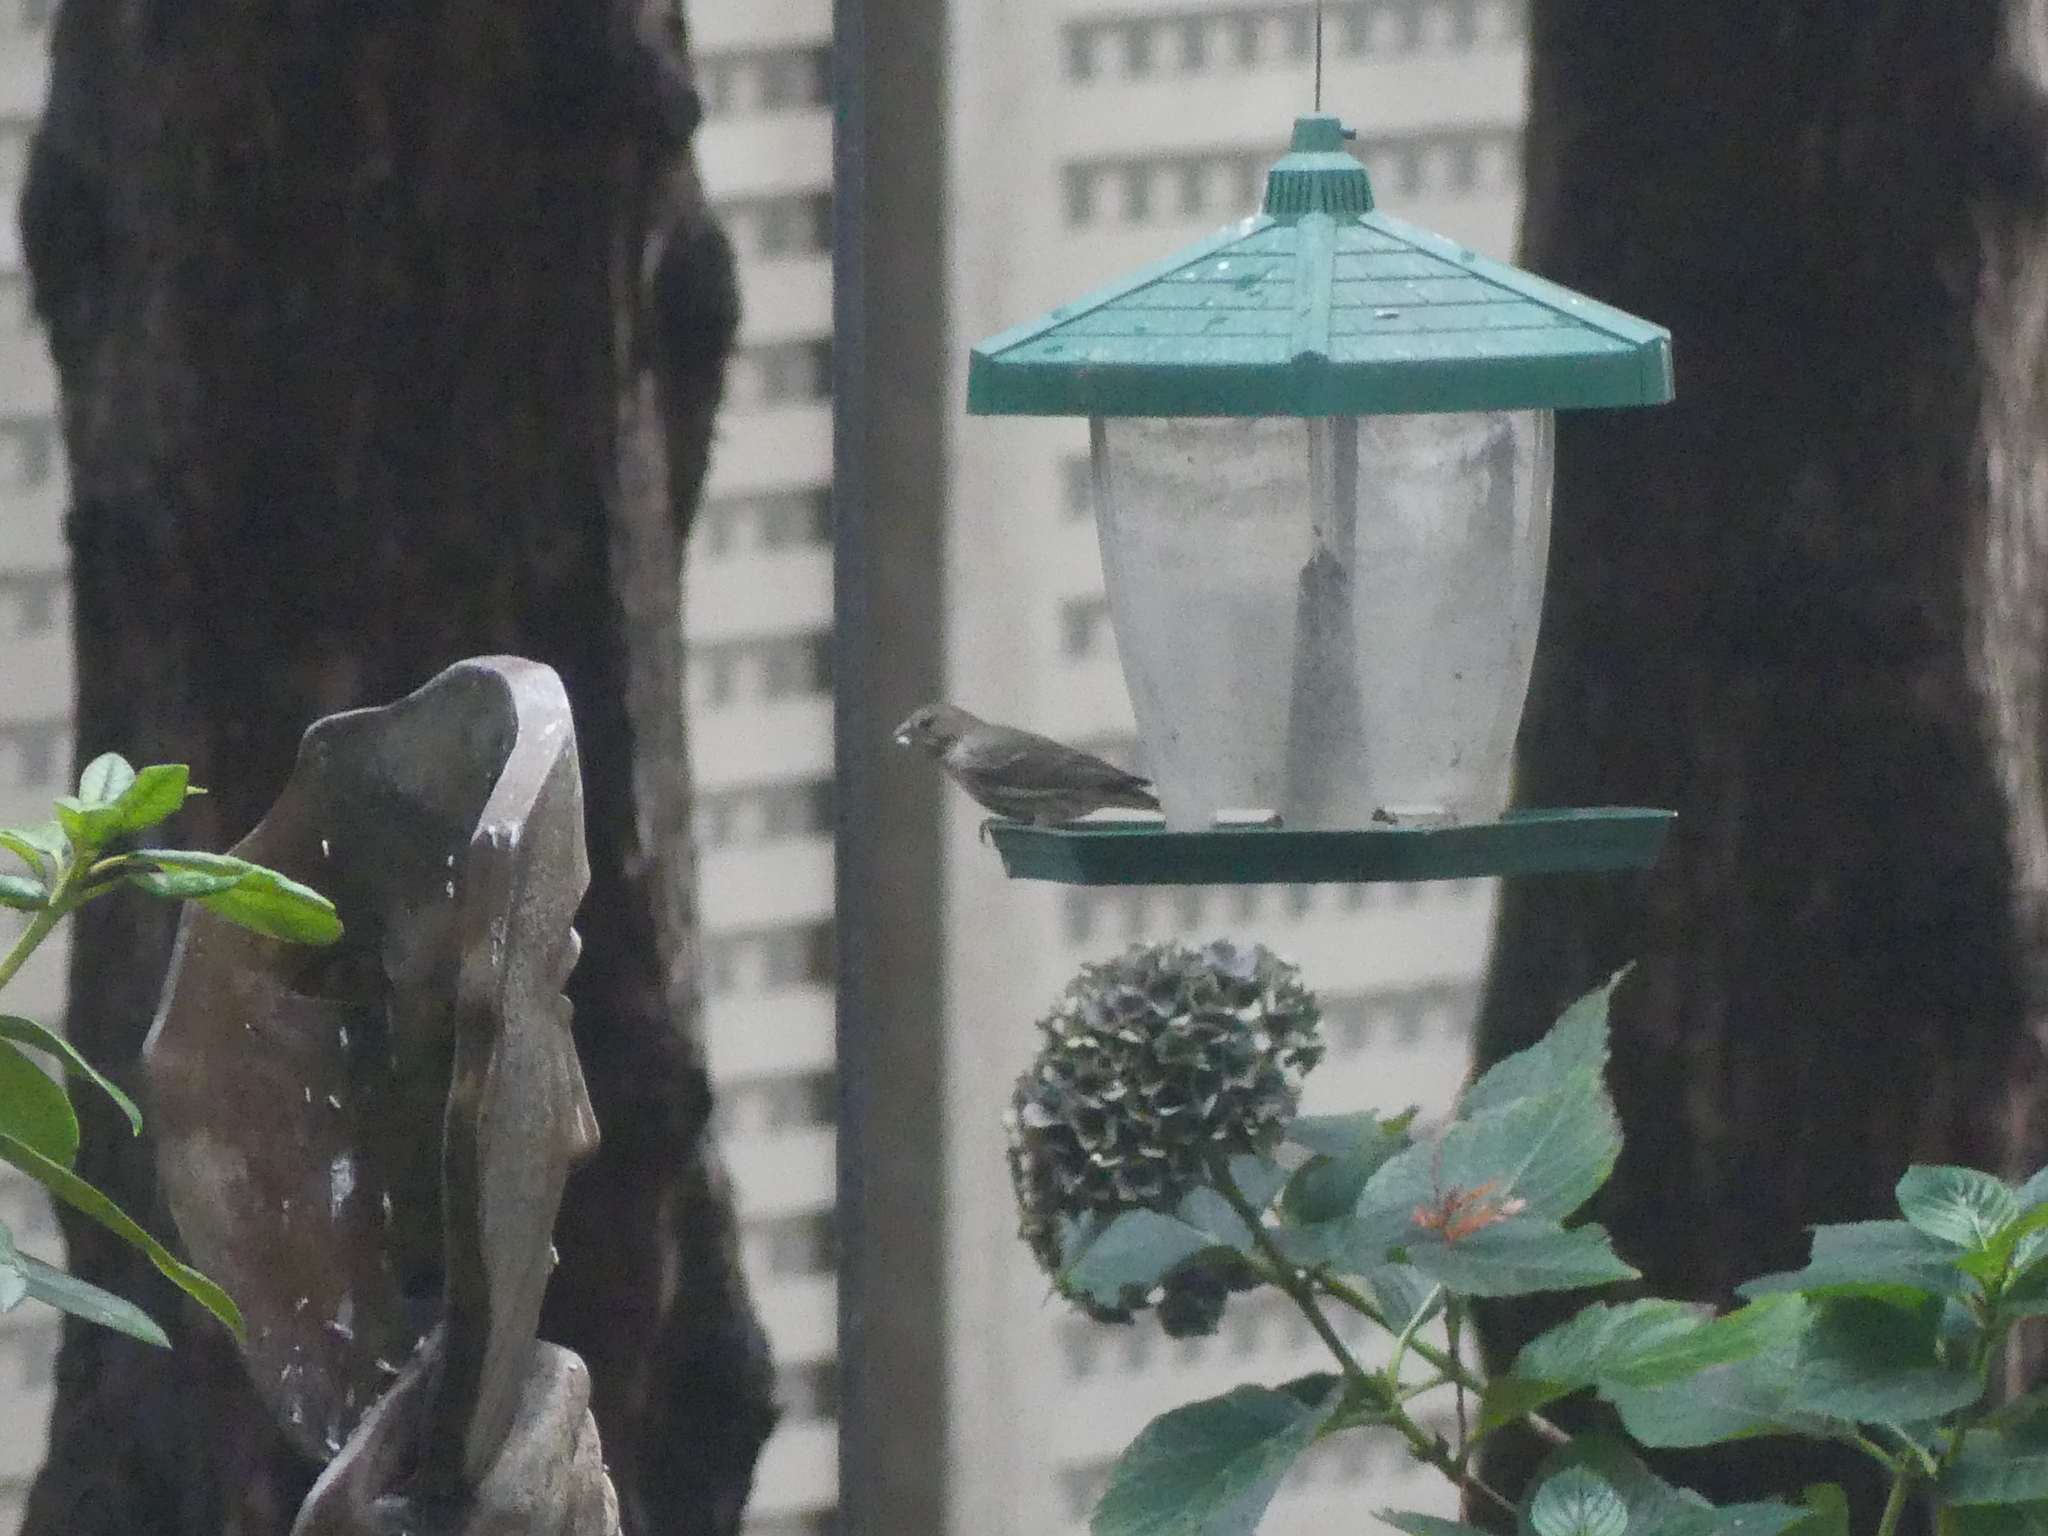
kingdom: Animalia
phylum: Chordata
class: Aves
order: Passeriformes
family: Fringillidae
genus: Haemorhous
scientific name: Haemorhous mexicanus
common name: House finch
